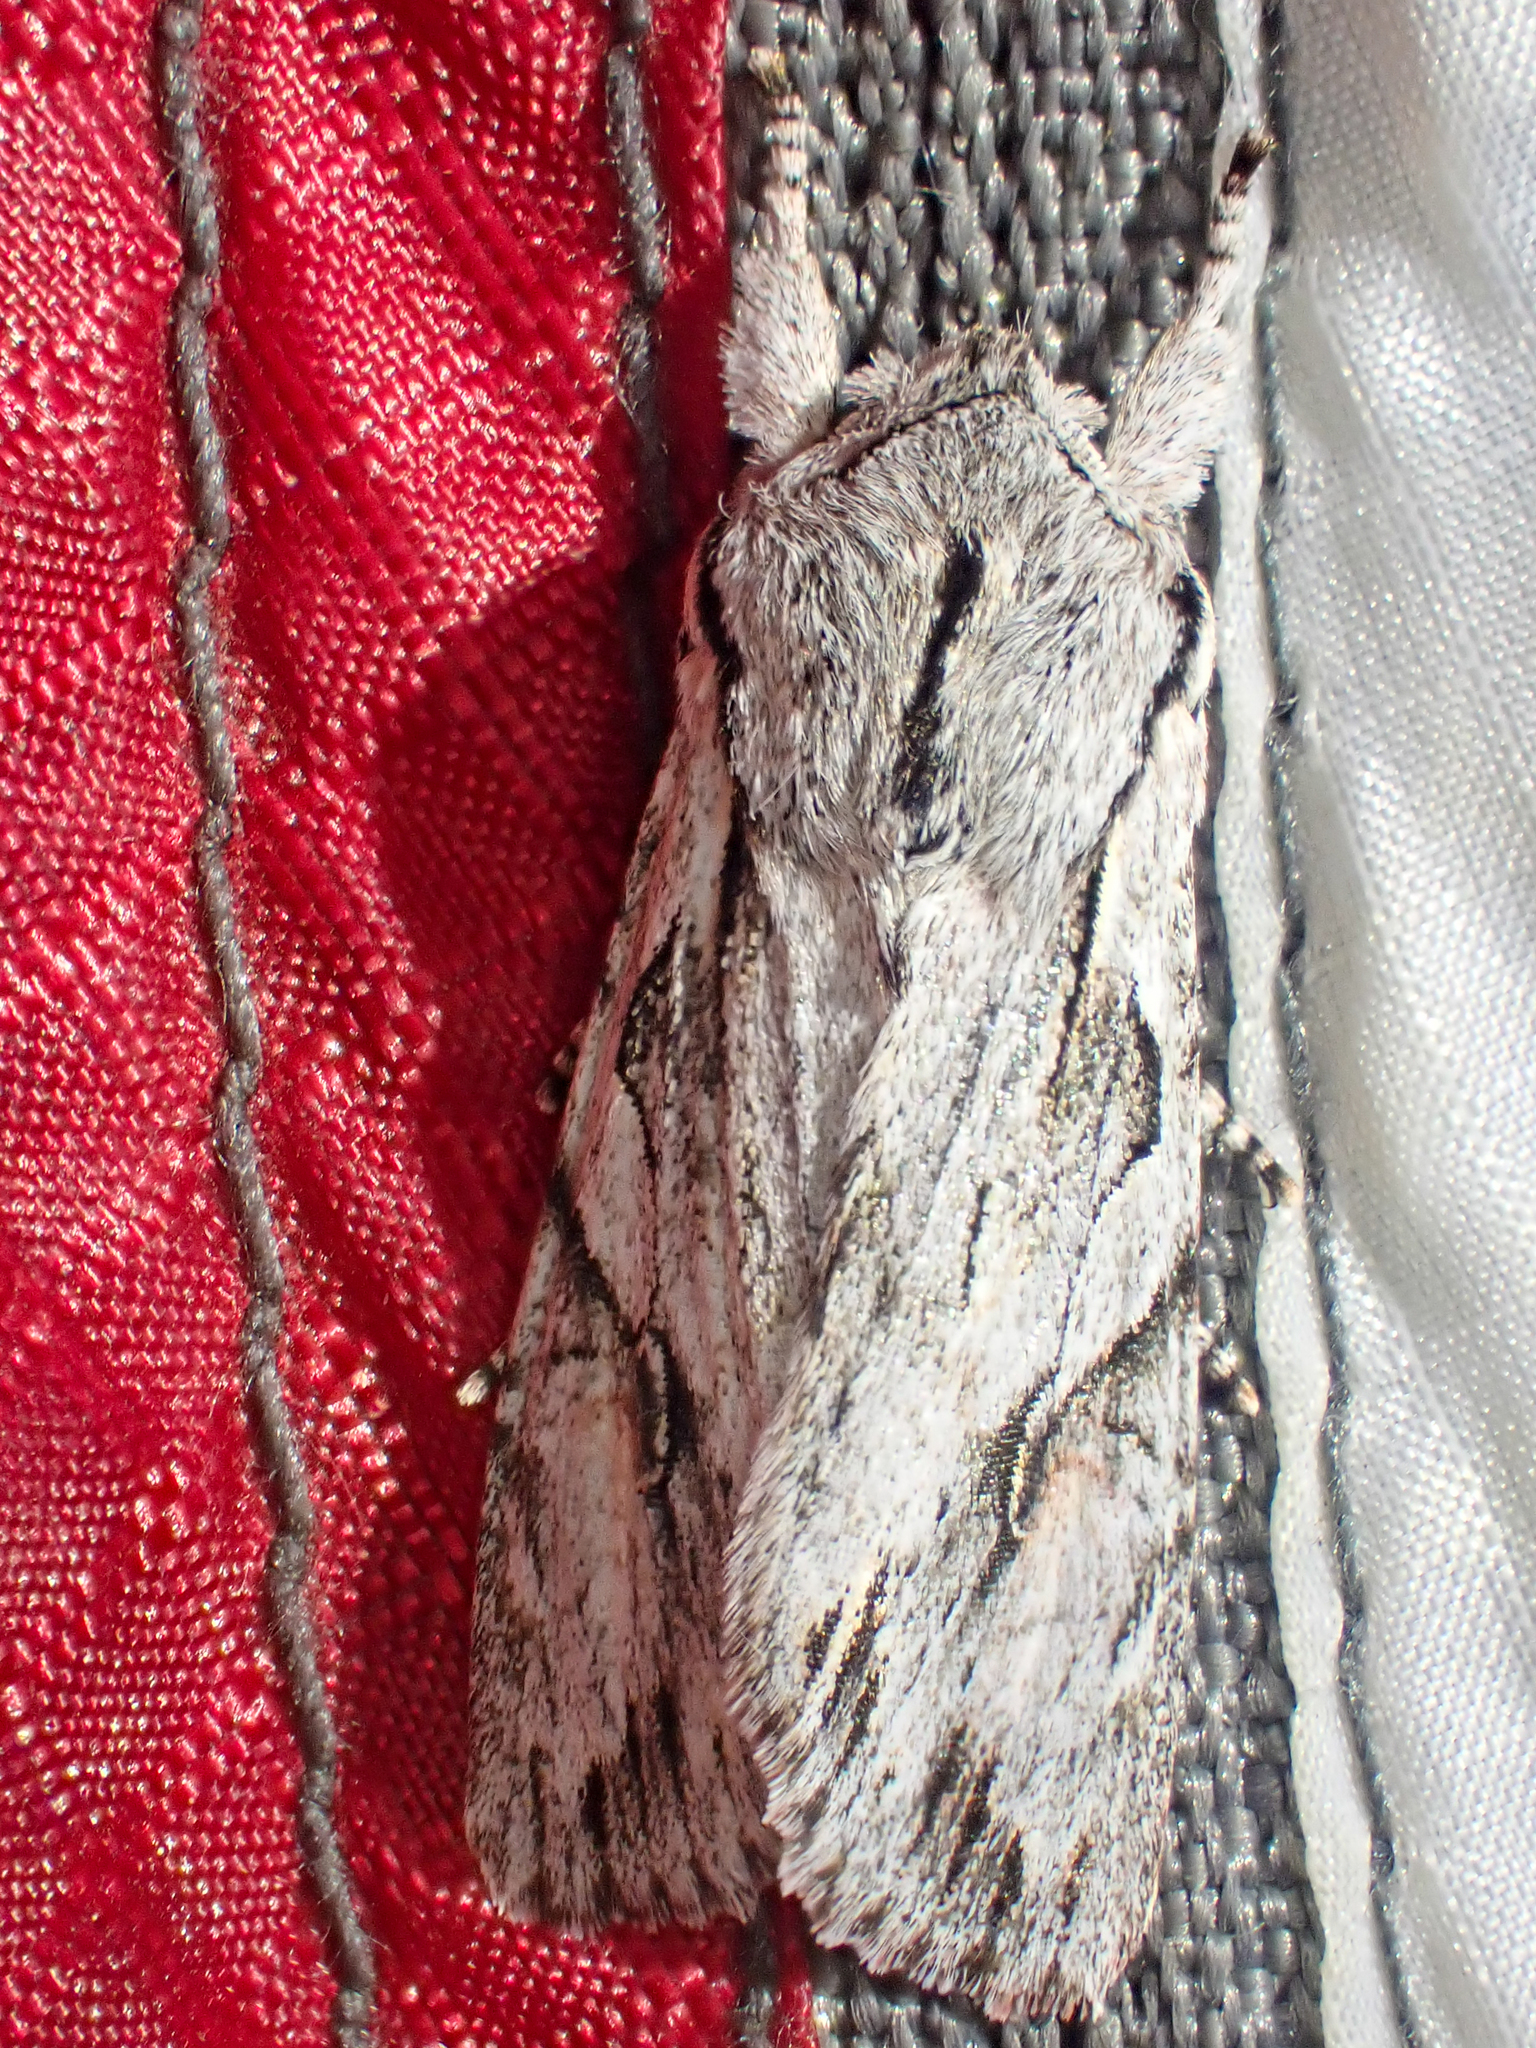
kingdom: Animalia
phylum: Arthropoda
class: Insecta
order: Lepidoptera
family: Noctuidae
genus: Egira
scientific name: Egira crucialis
